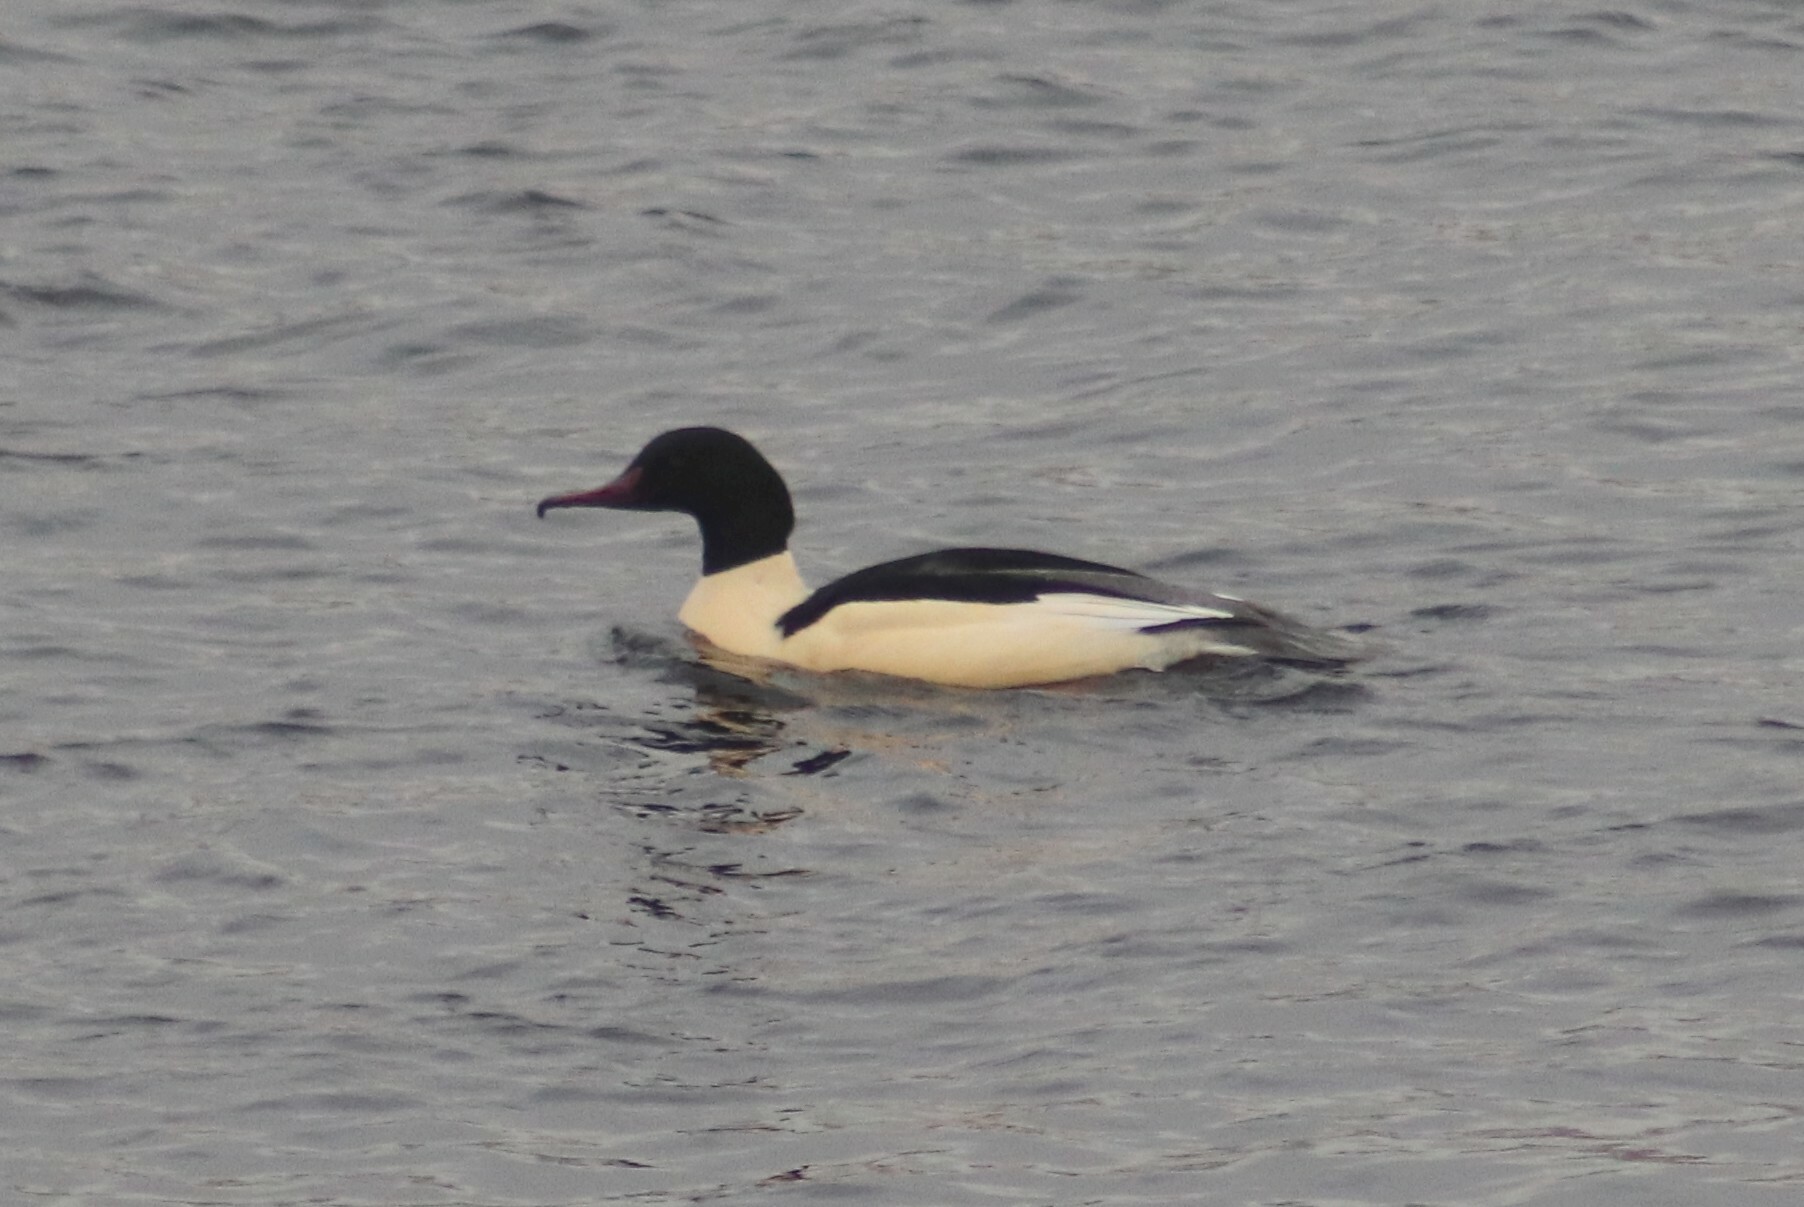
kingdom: Animalia
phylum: Chordata
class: Aves
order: Anseriformes
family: Anatidae
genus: Mergus
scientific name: Mergus merganser
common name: Common merganser
